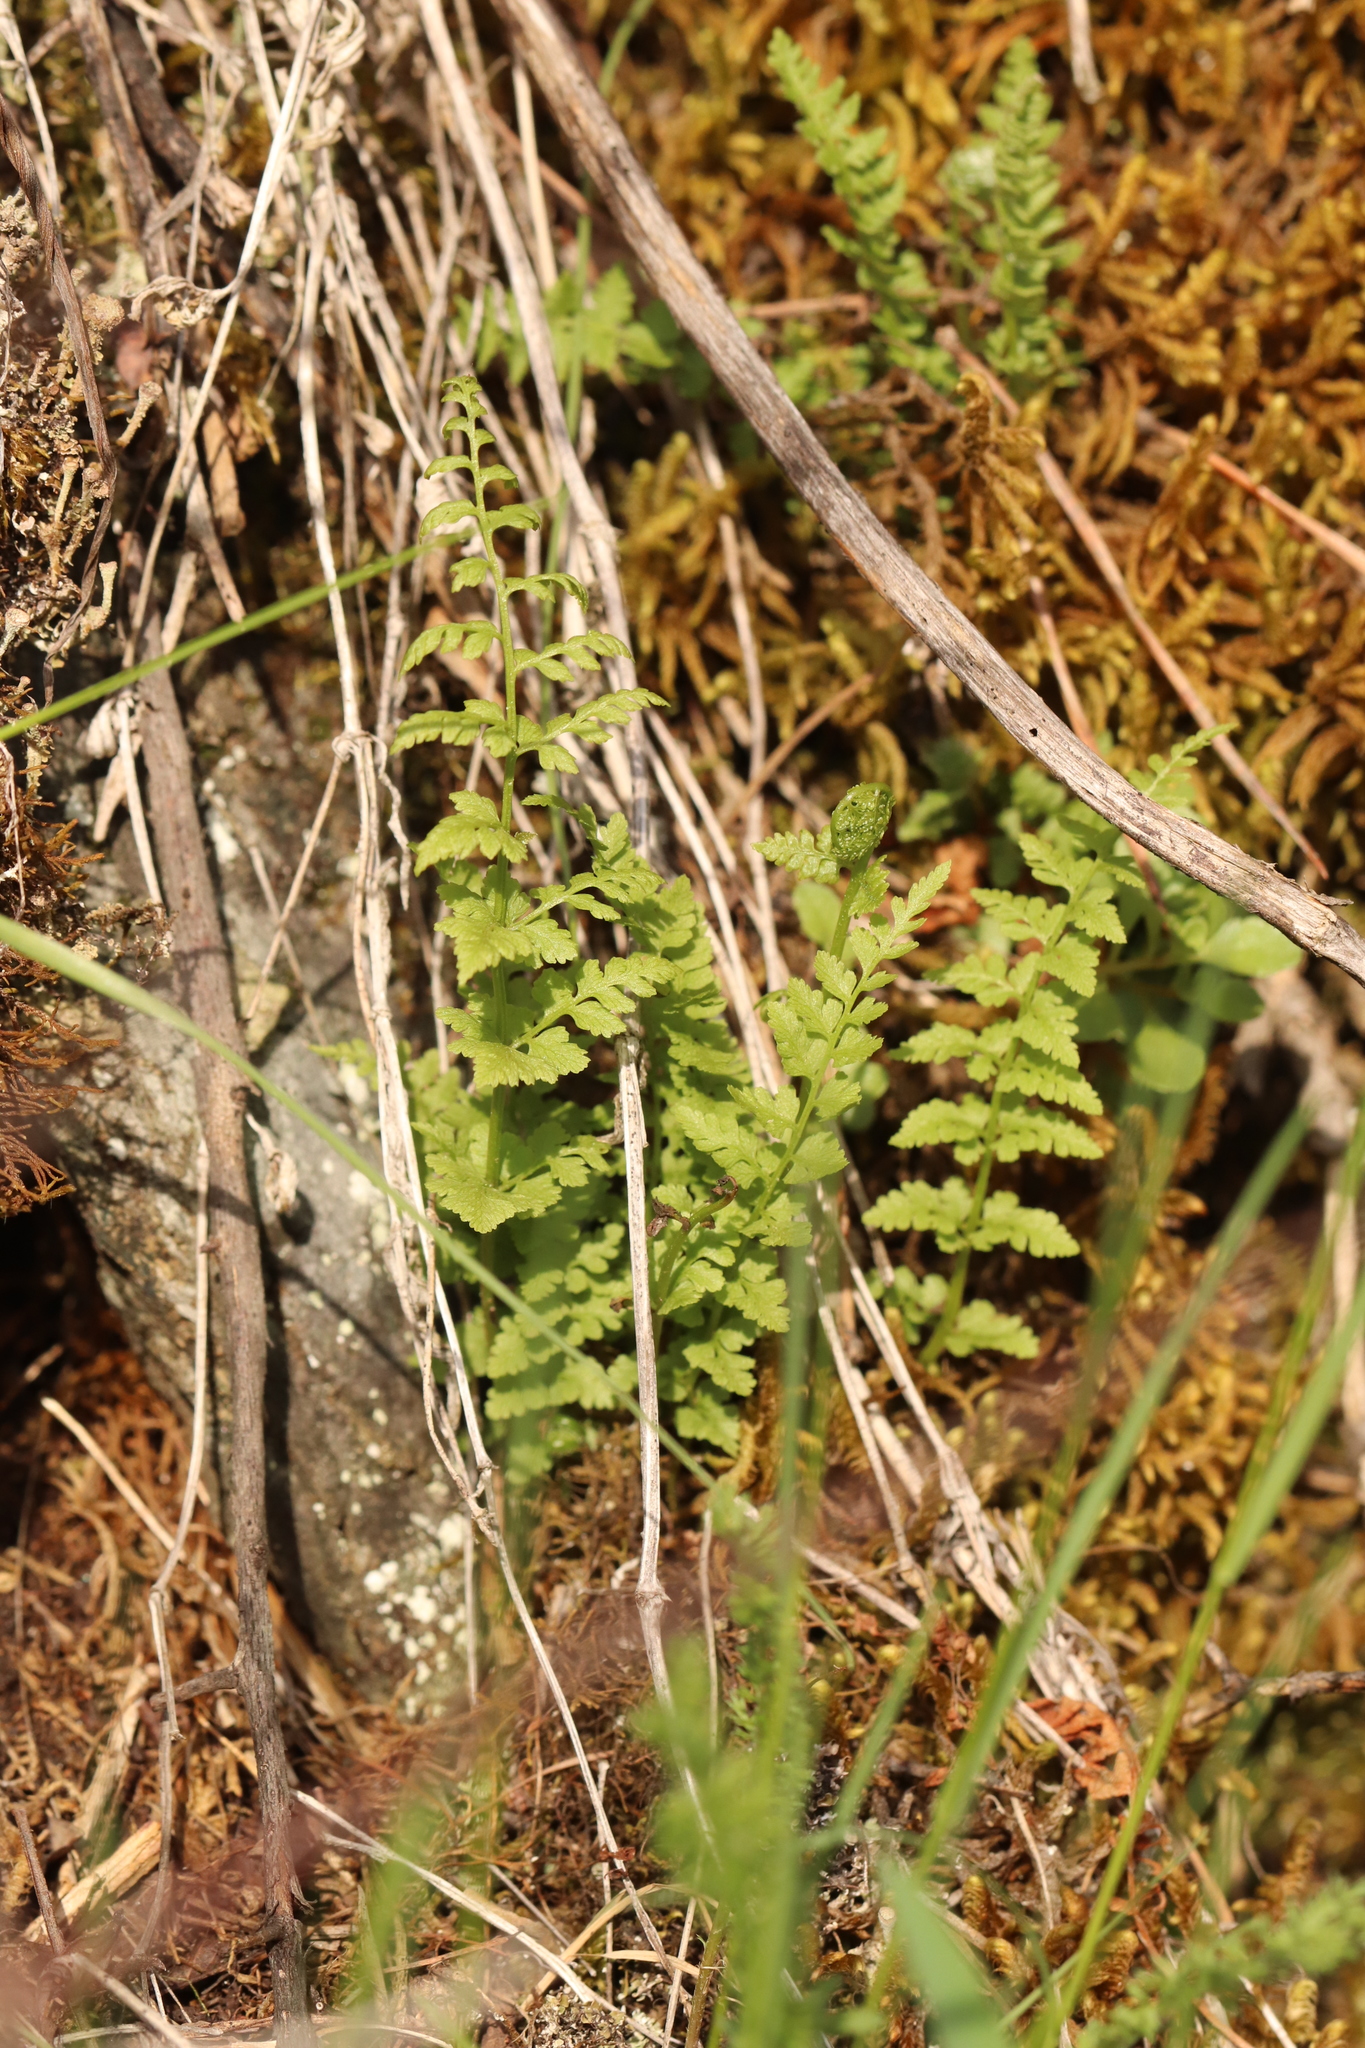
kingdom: Plantae
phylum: Tracheophyta
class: Polypodiopsida
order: Polypodiales
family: Cystopteridaceae
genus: Cystopteris
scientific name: Cystopteris fragilis
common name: Brittle bladder fern
